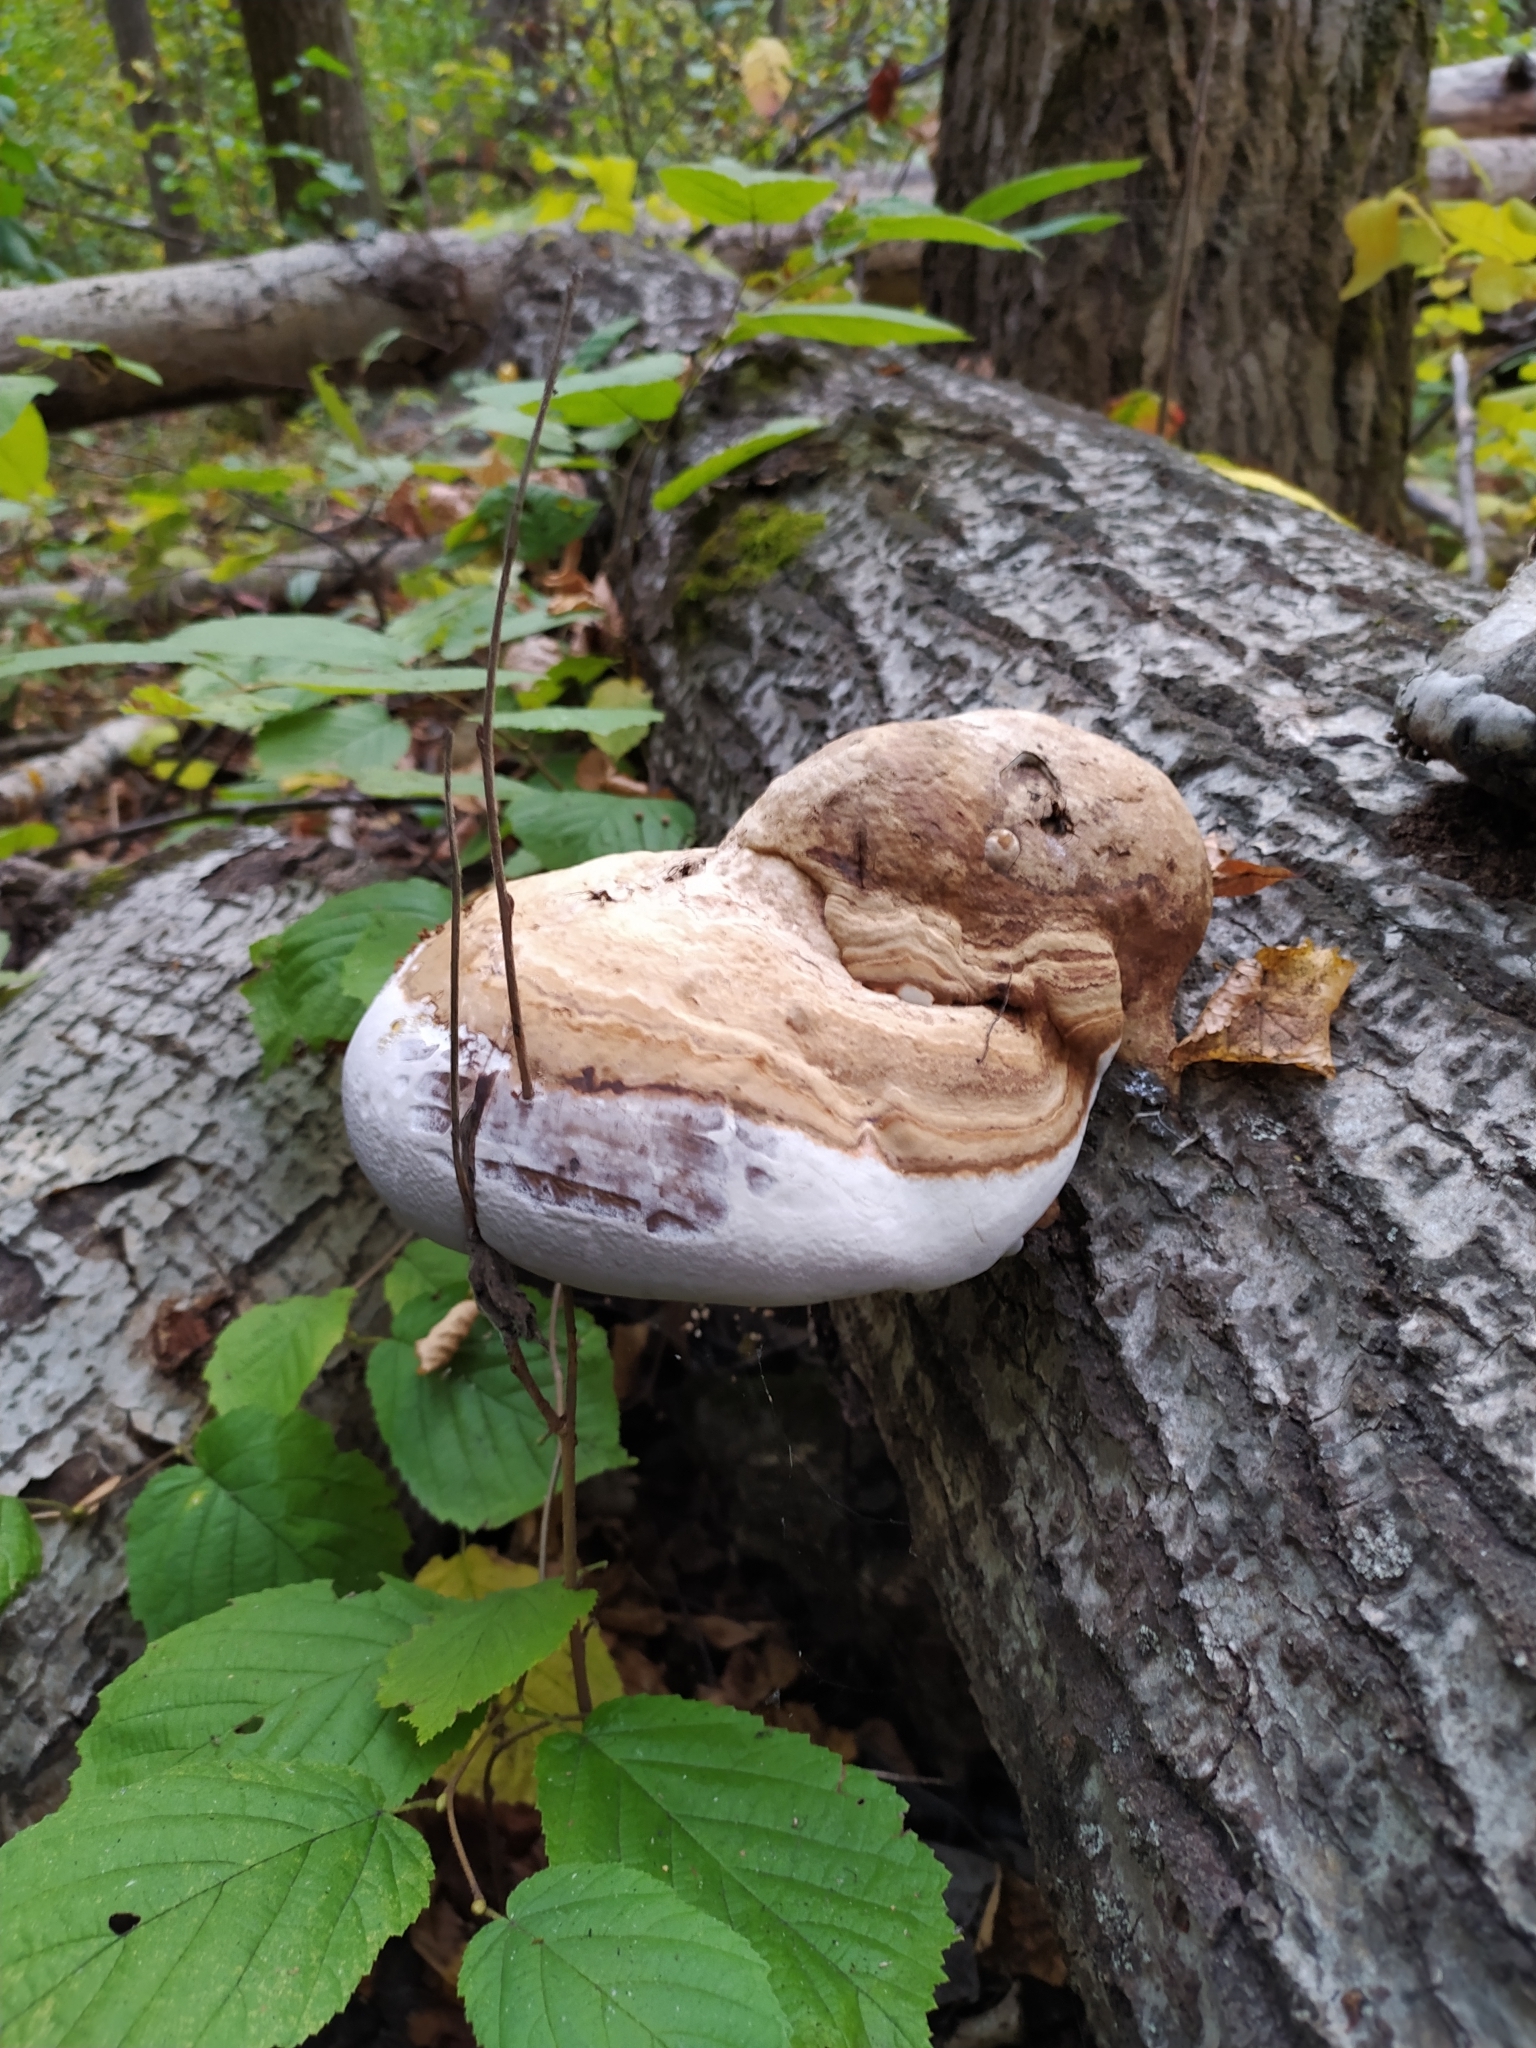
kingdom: Fungi
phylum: Basidiomycota
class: Agaricomycetes
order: Polyporales
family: Polyporaceae
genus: Fomes
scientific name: Fomes fomentarius
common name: Hoof fungus
